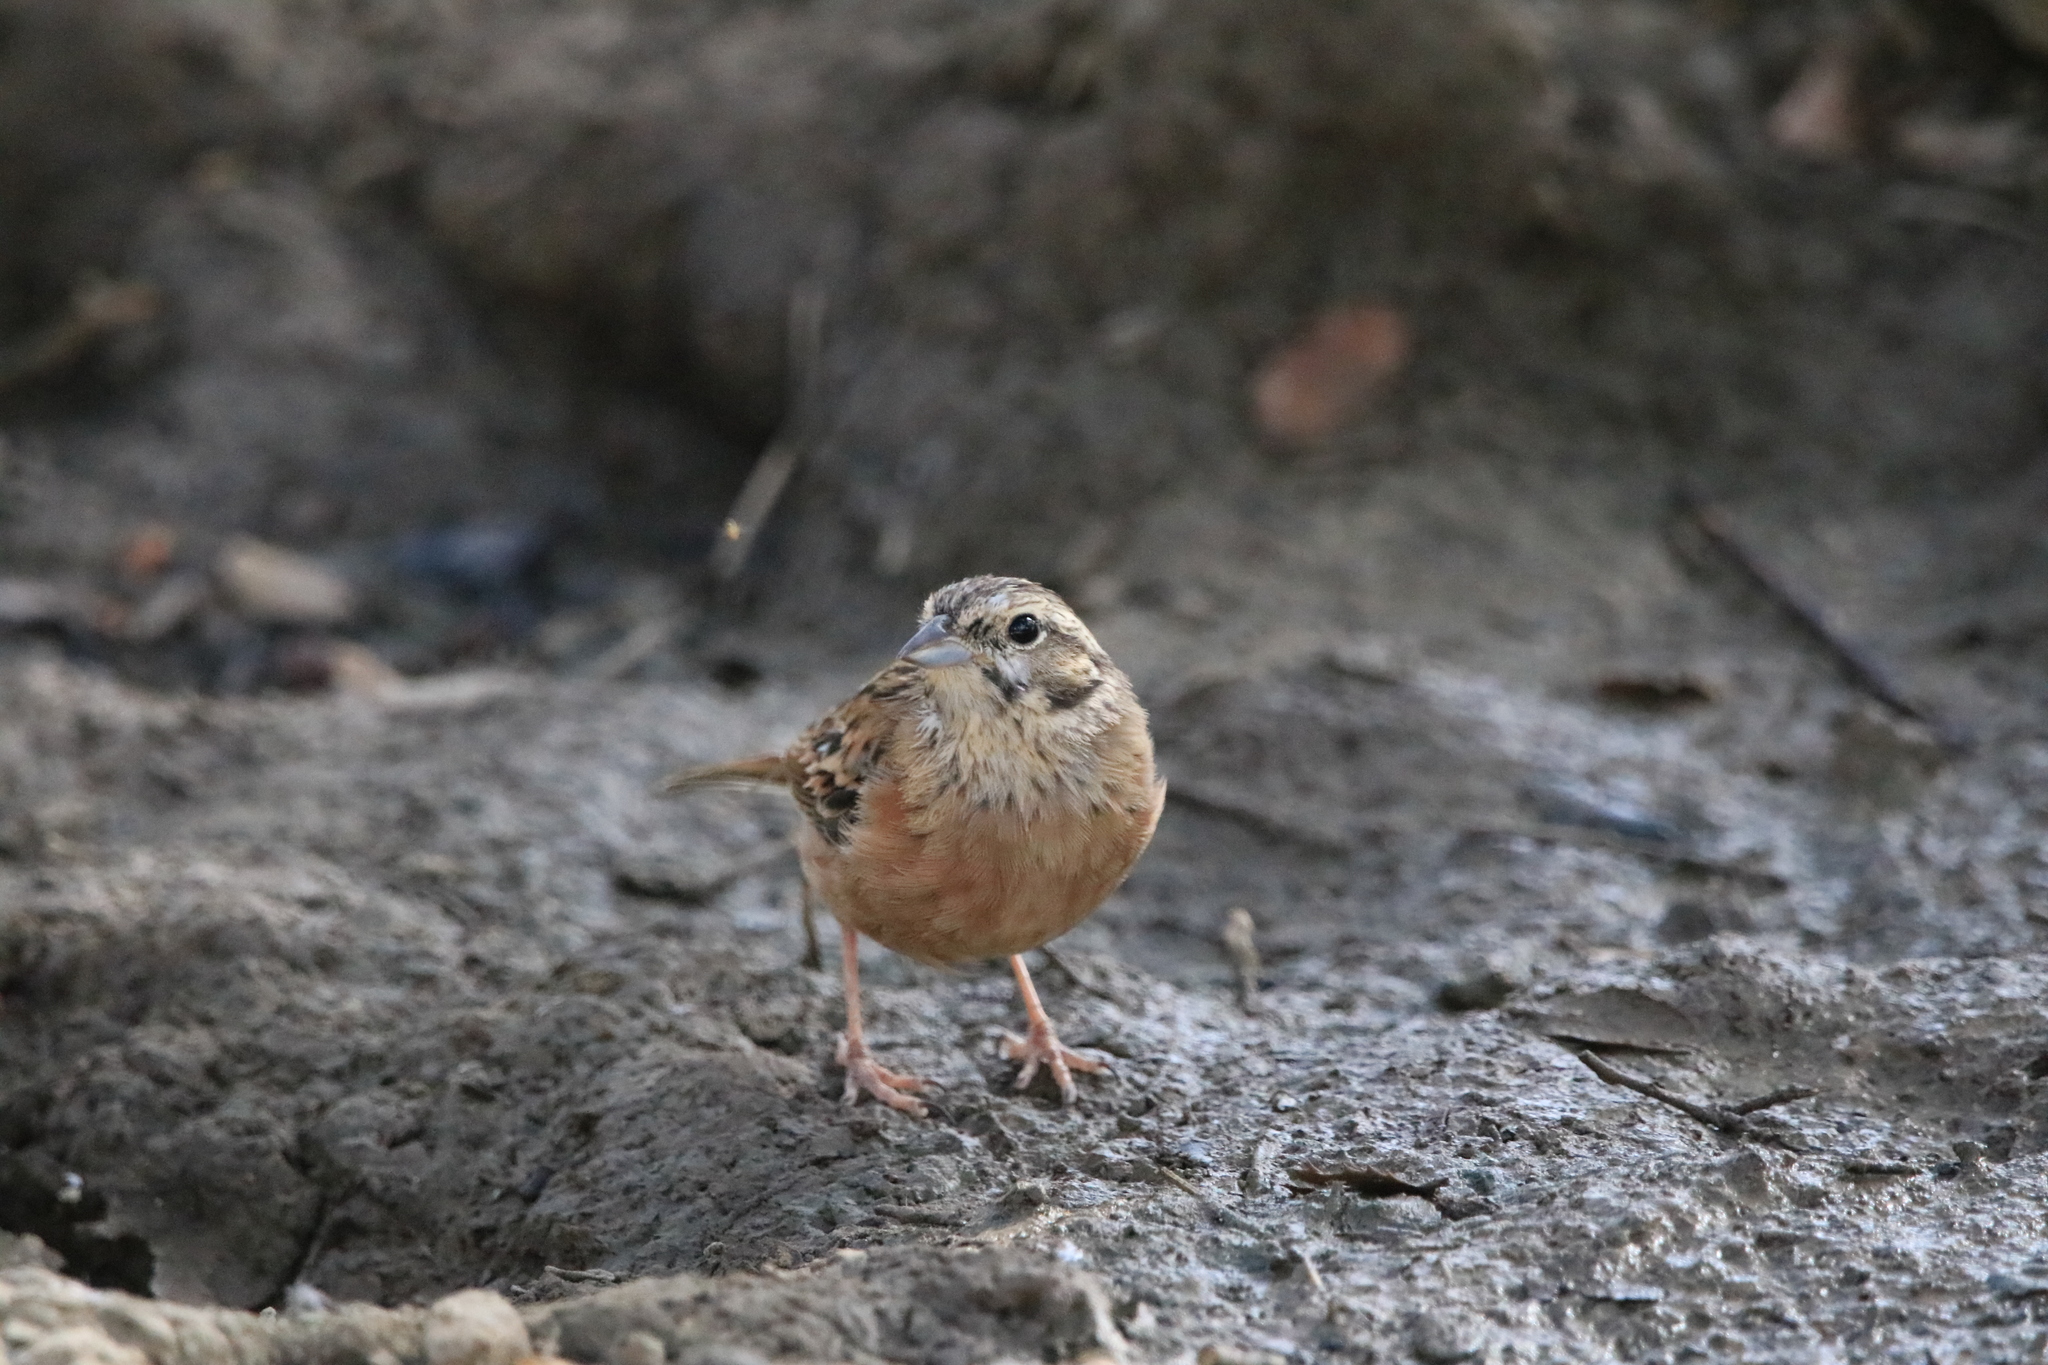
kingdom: Animalia
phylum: Chordata
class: Aves
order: Passeriformes
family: Emberizidae
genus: Emberiza
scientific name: Emberiza cia
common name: Rock bunting
